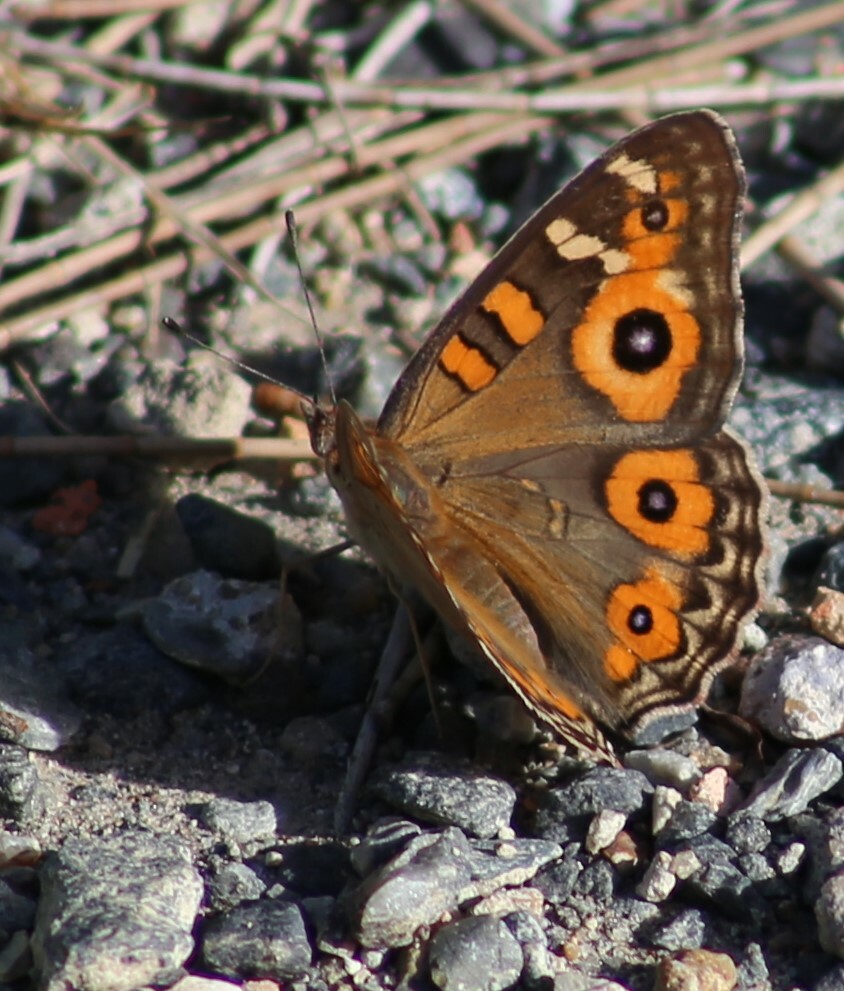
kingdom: Animalia
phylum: Arthropoda
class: Insecta
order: Lepidoptera
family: Nymphalidae
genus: Junonia
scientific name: Junonia villida
